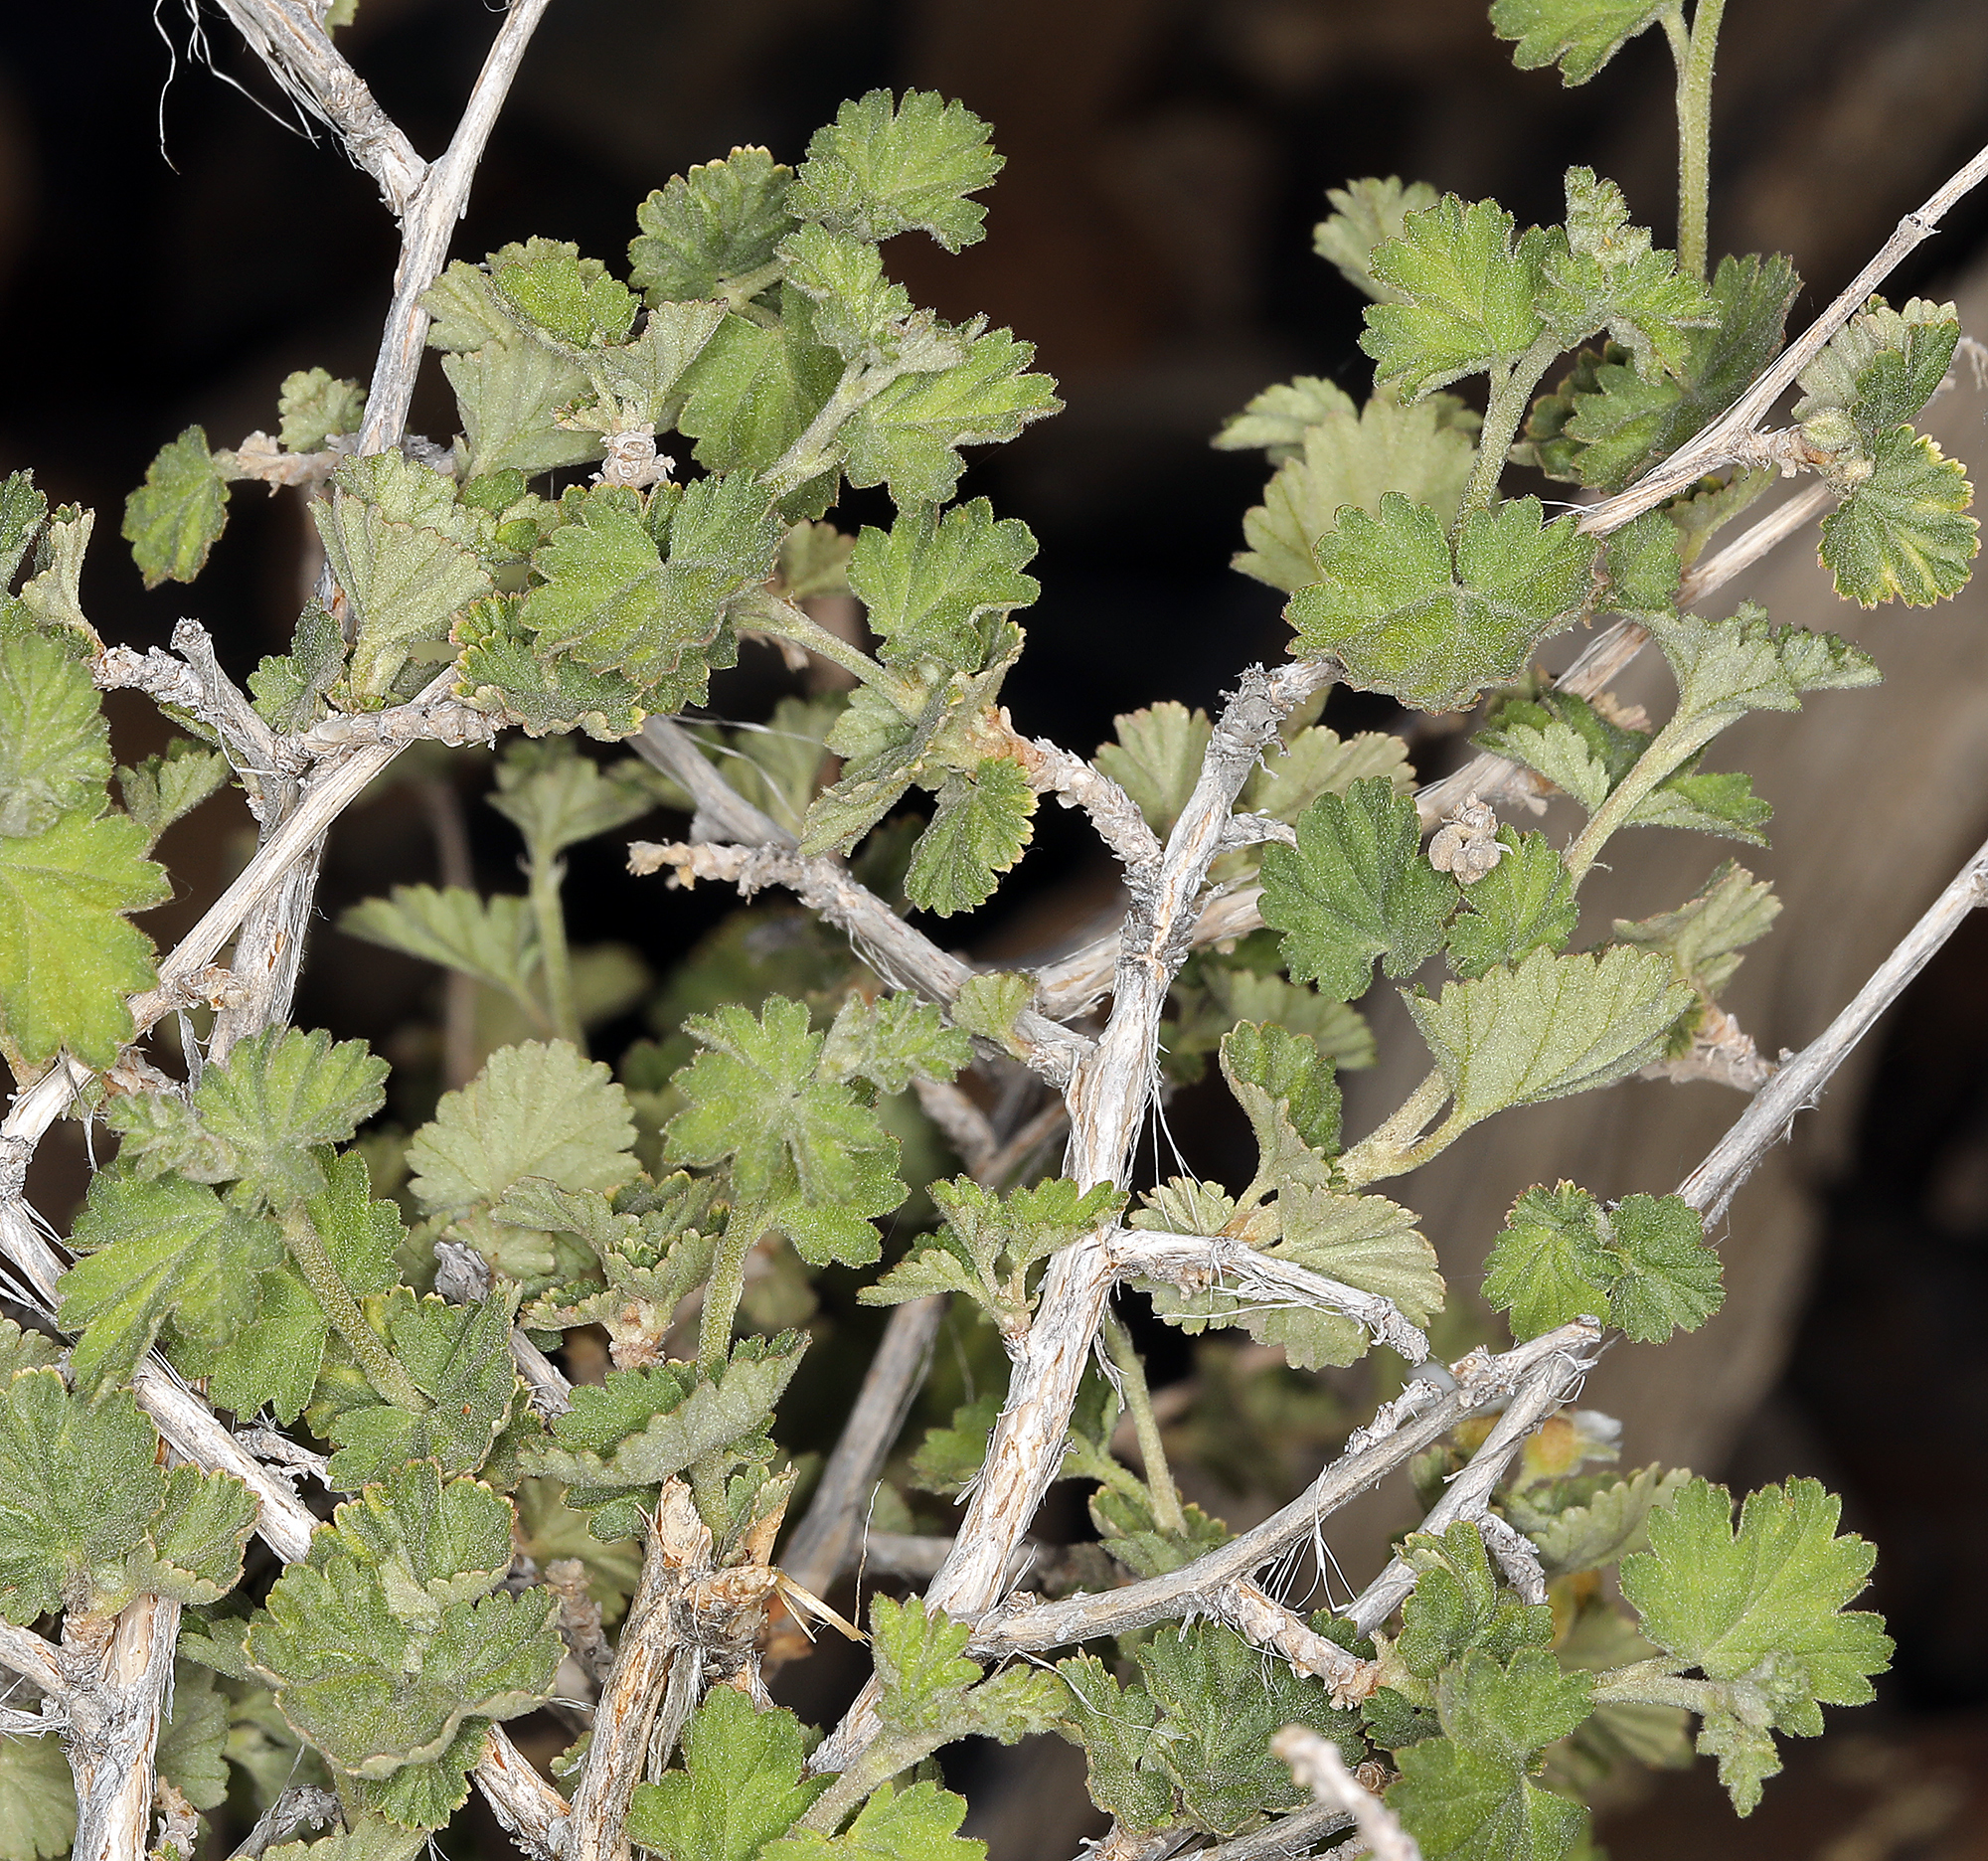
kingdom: Plantae
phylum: Tracheophyta
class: Magnoliopsida
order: Rosales
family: Rosaceae
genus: Physocarpus
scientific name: Physocarpus alternans
